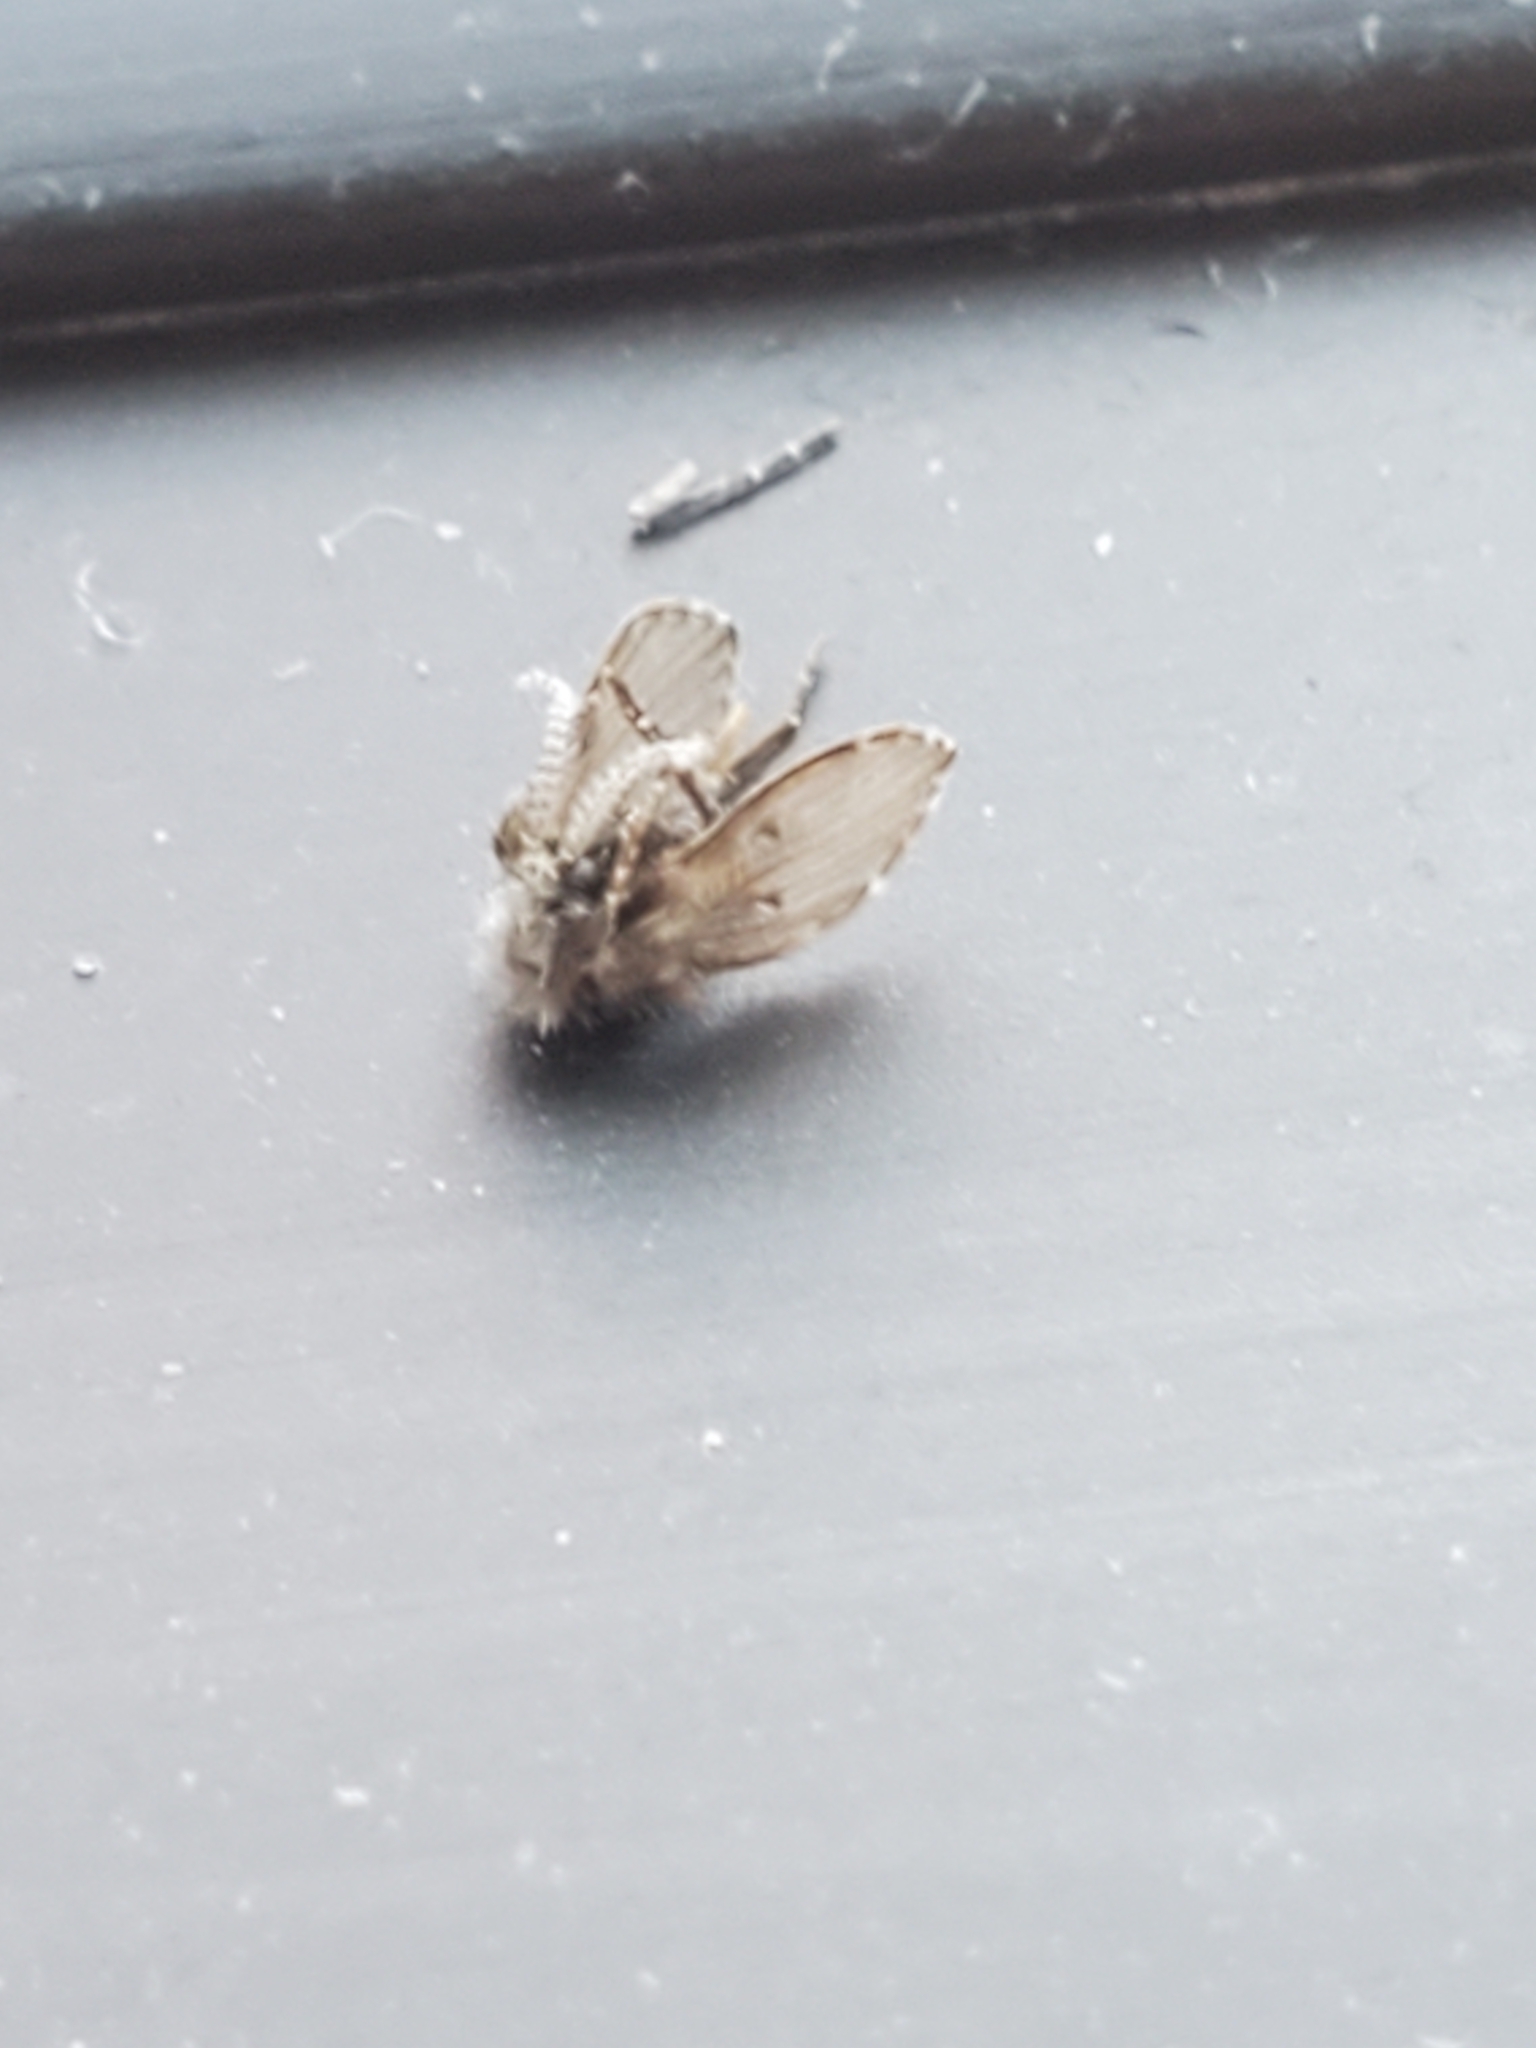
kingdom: Animalia
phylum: Arthropoda
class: Insecta
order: Diptera
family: Psychodidae
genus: Clogmia
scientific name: Clogmia albipunctatus
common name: White-spotted moth fly
